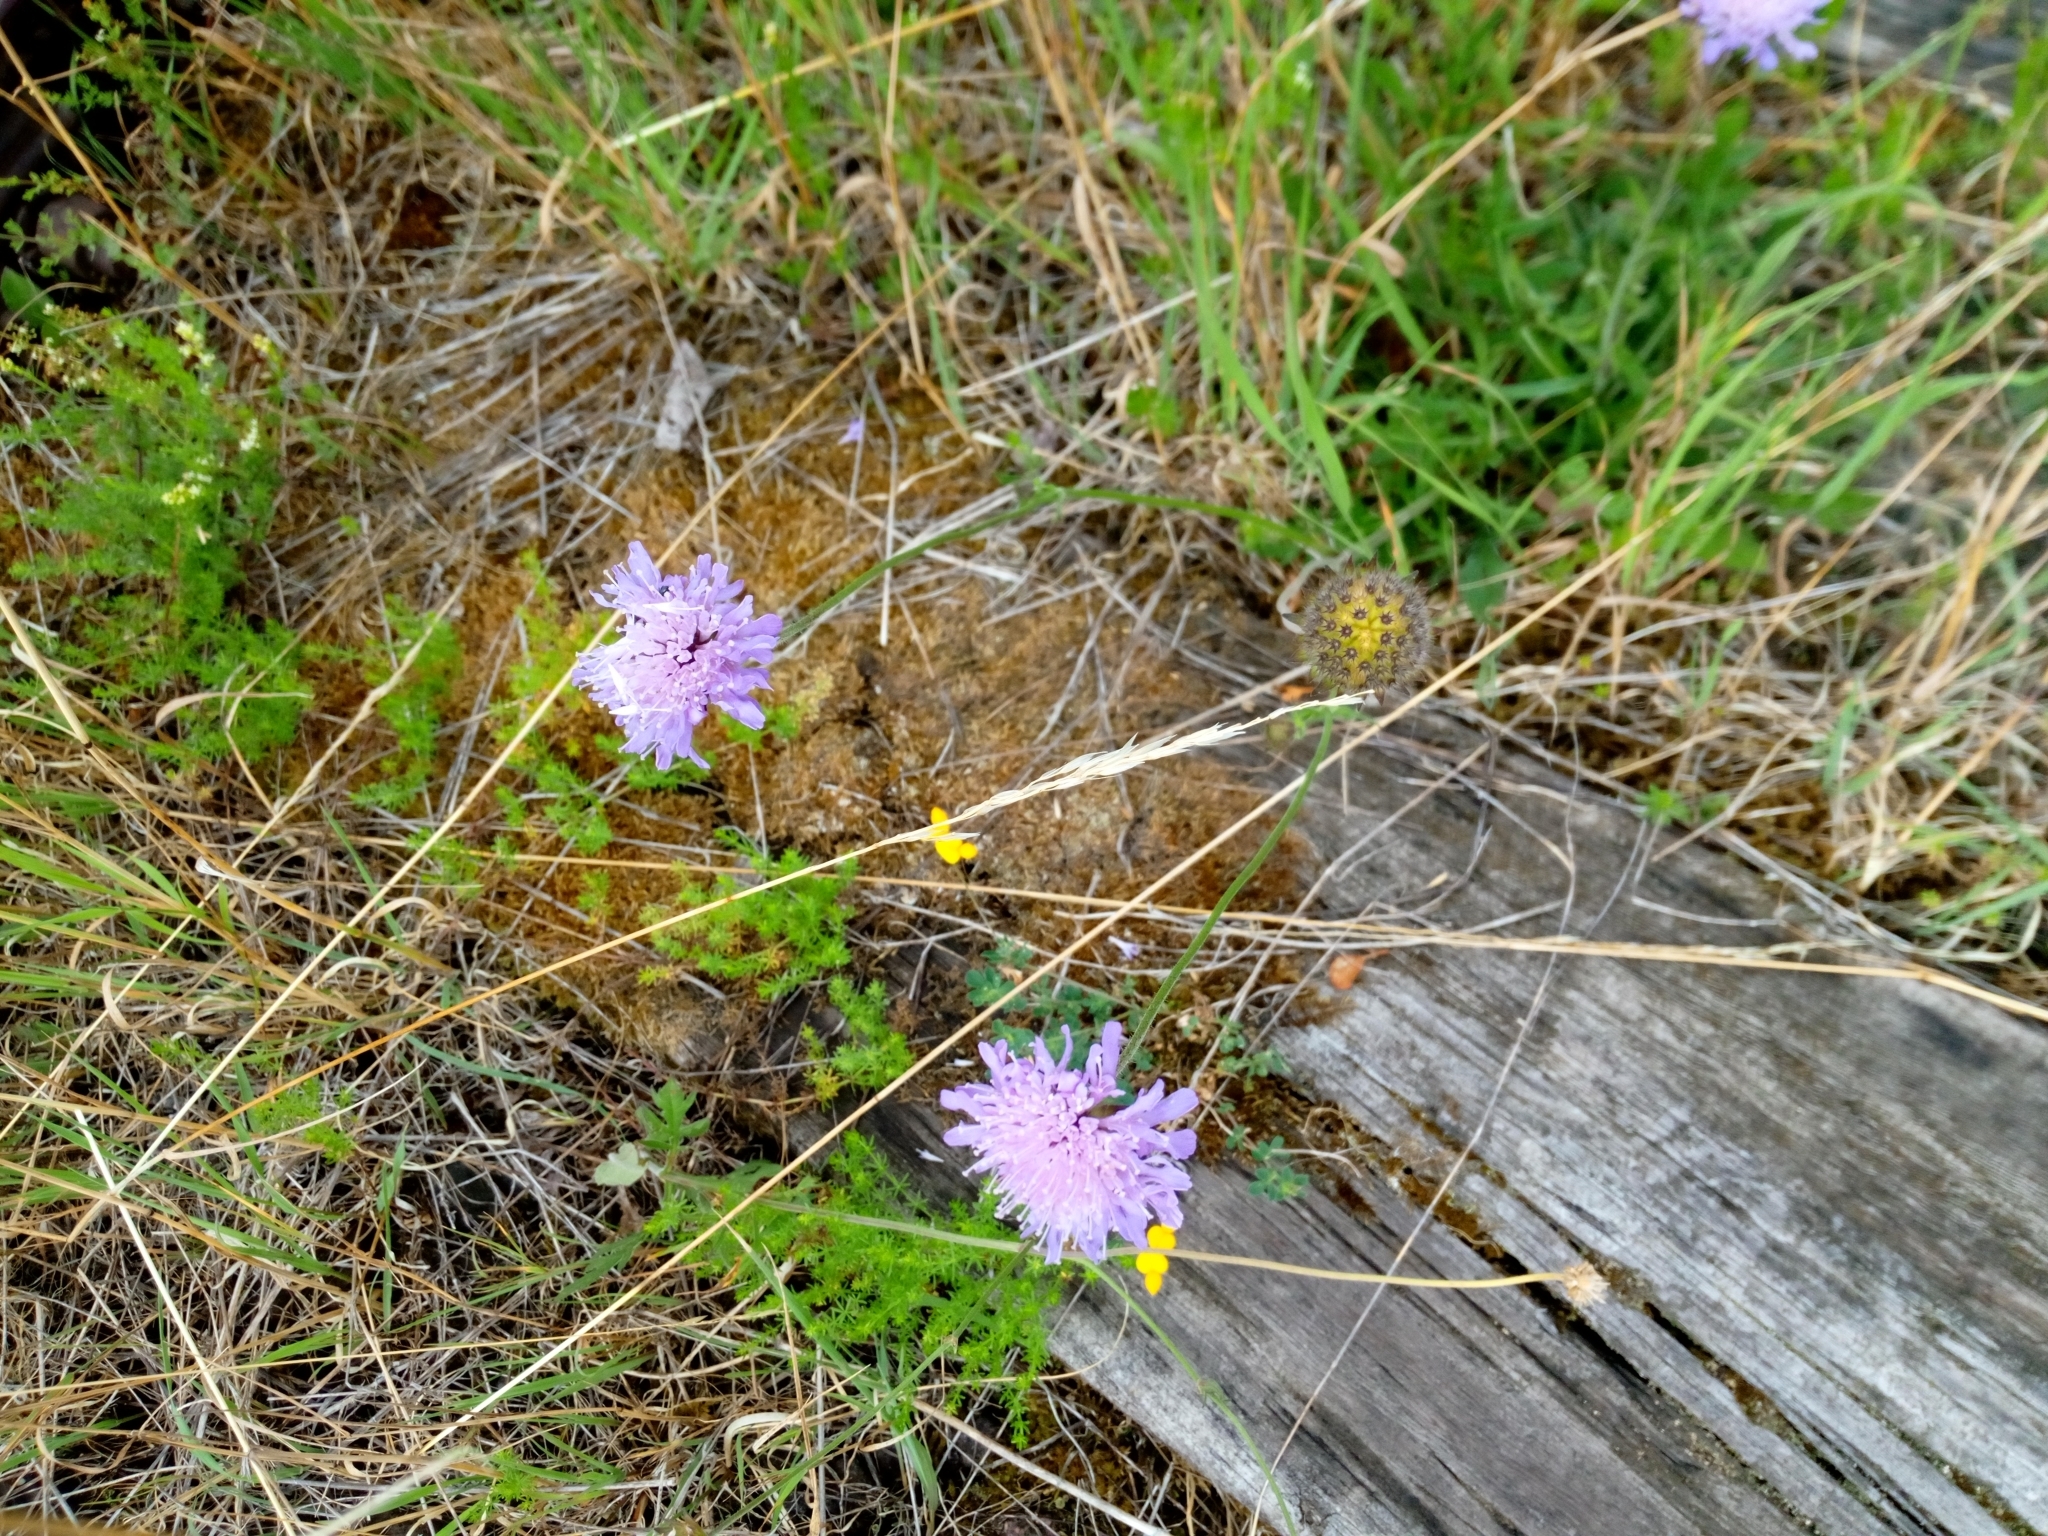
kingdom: Plantae
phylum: Tracheophyta
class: Magnoliopsida
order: Dipsacales
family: Caprifoliaceae
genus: Knautia
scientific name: Knautia arvensis
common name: Field scabiosa
